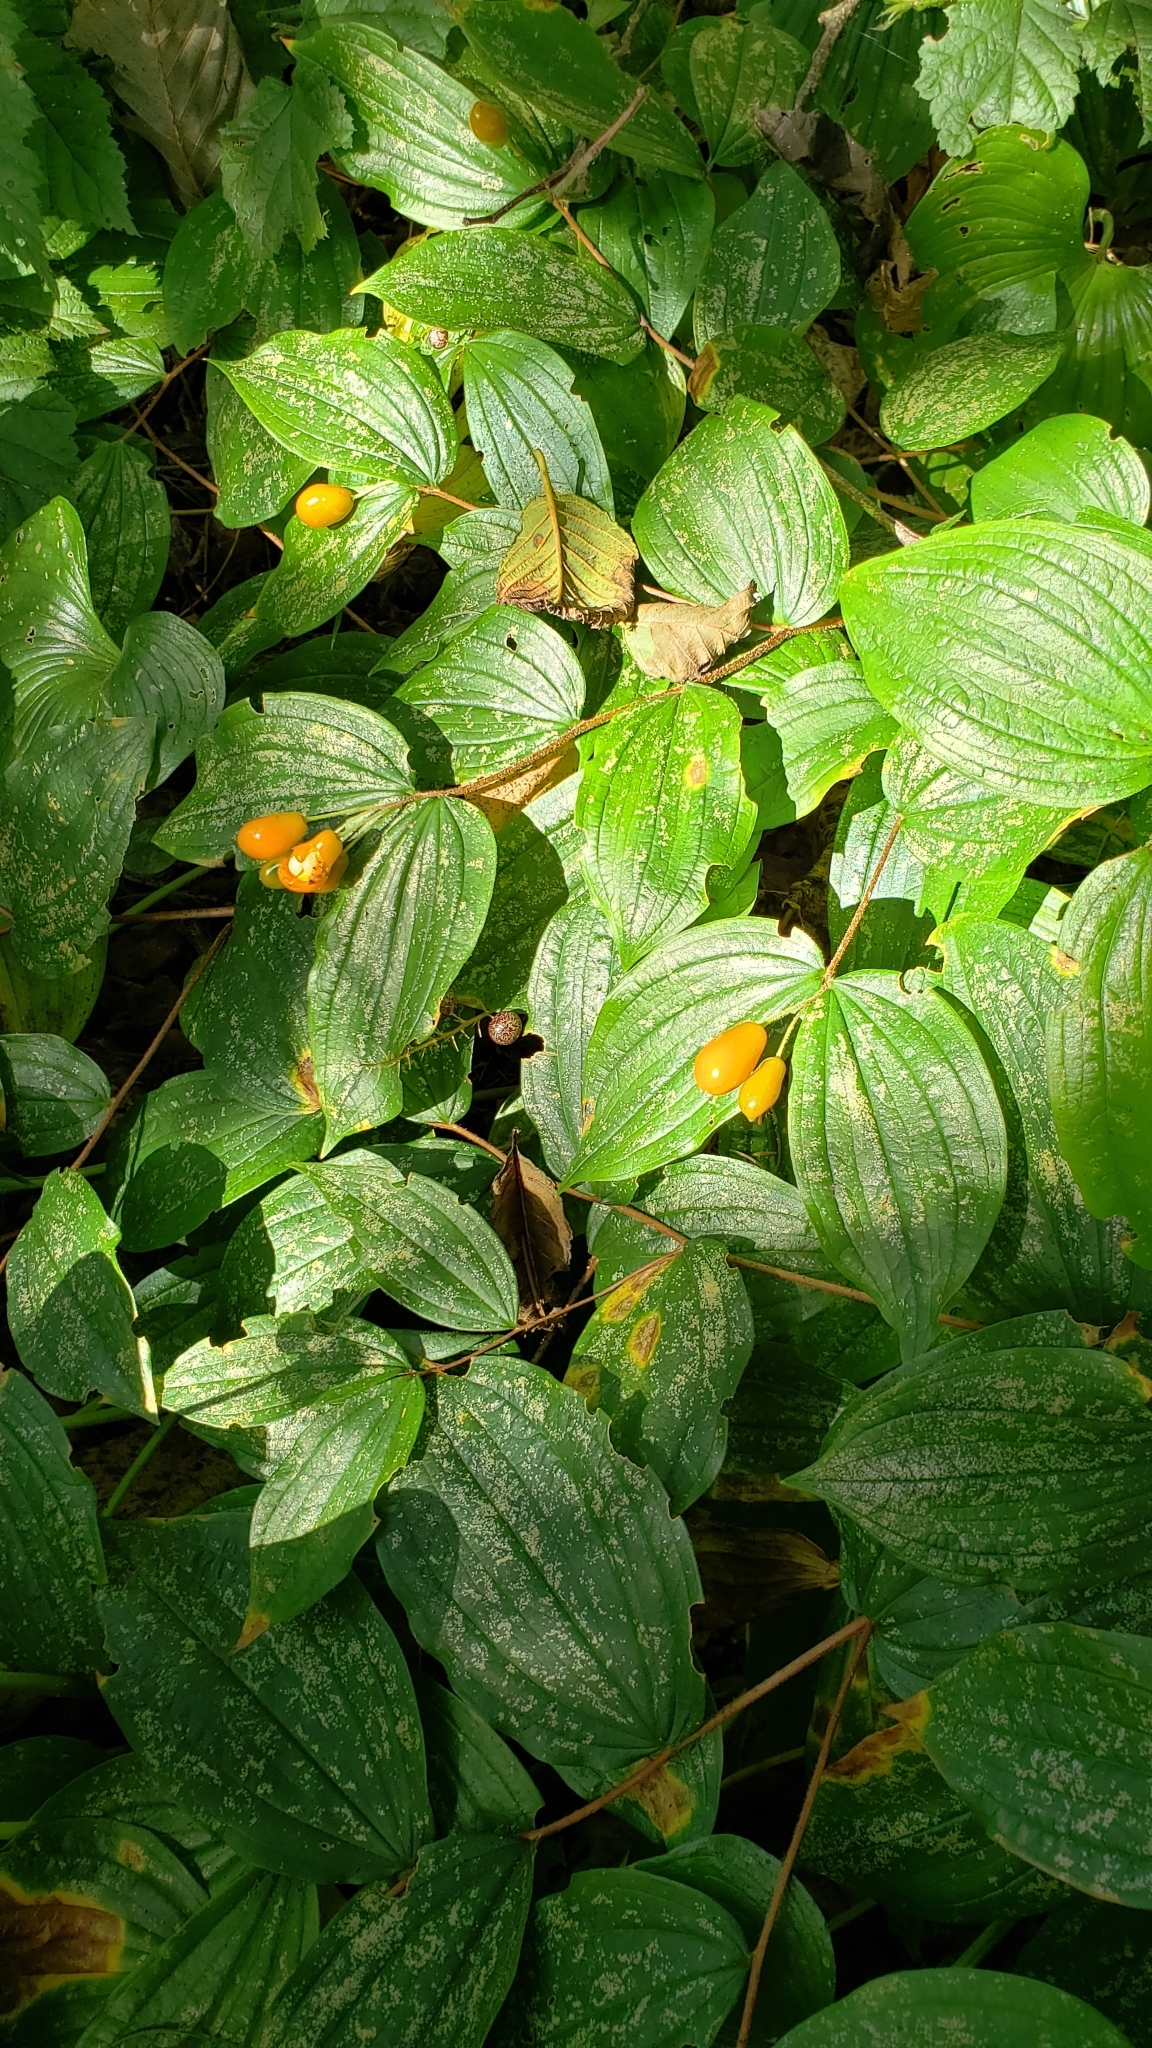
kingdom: Plantae
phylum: Tracheophyta
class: Liliopsida
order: Liliales
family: Liliaceae
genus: Prosartes
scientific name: Prosartes smithii
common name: Fairy-lantern
